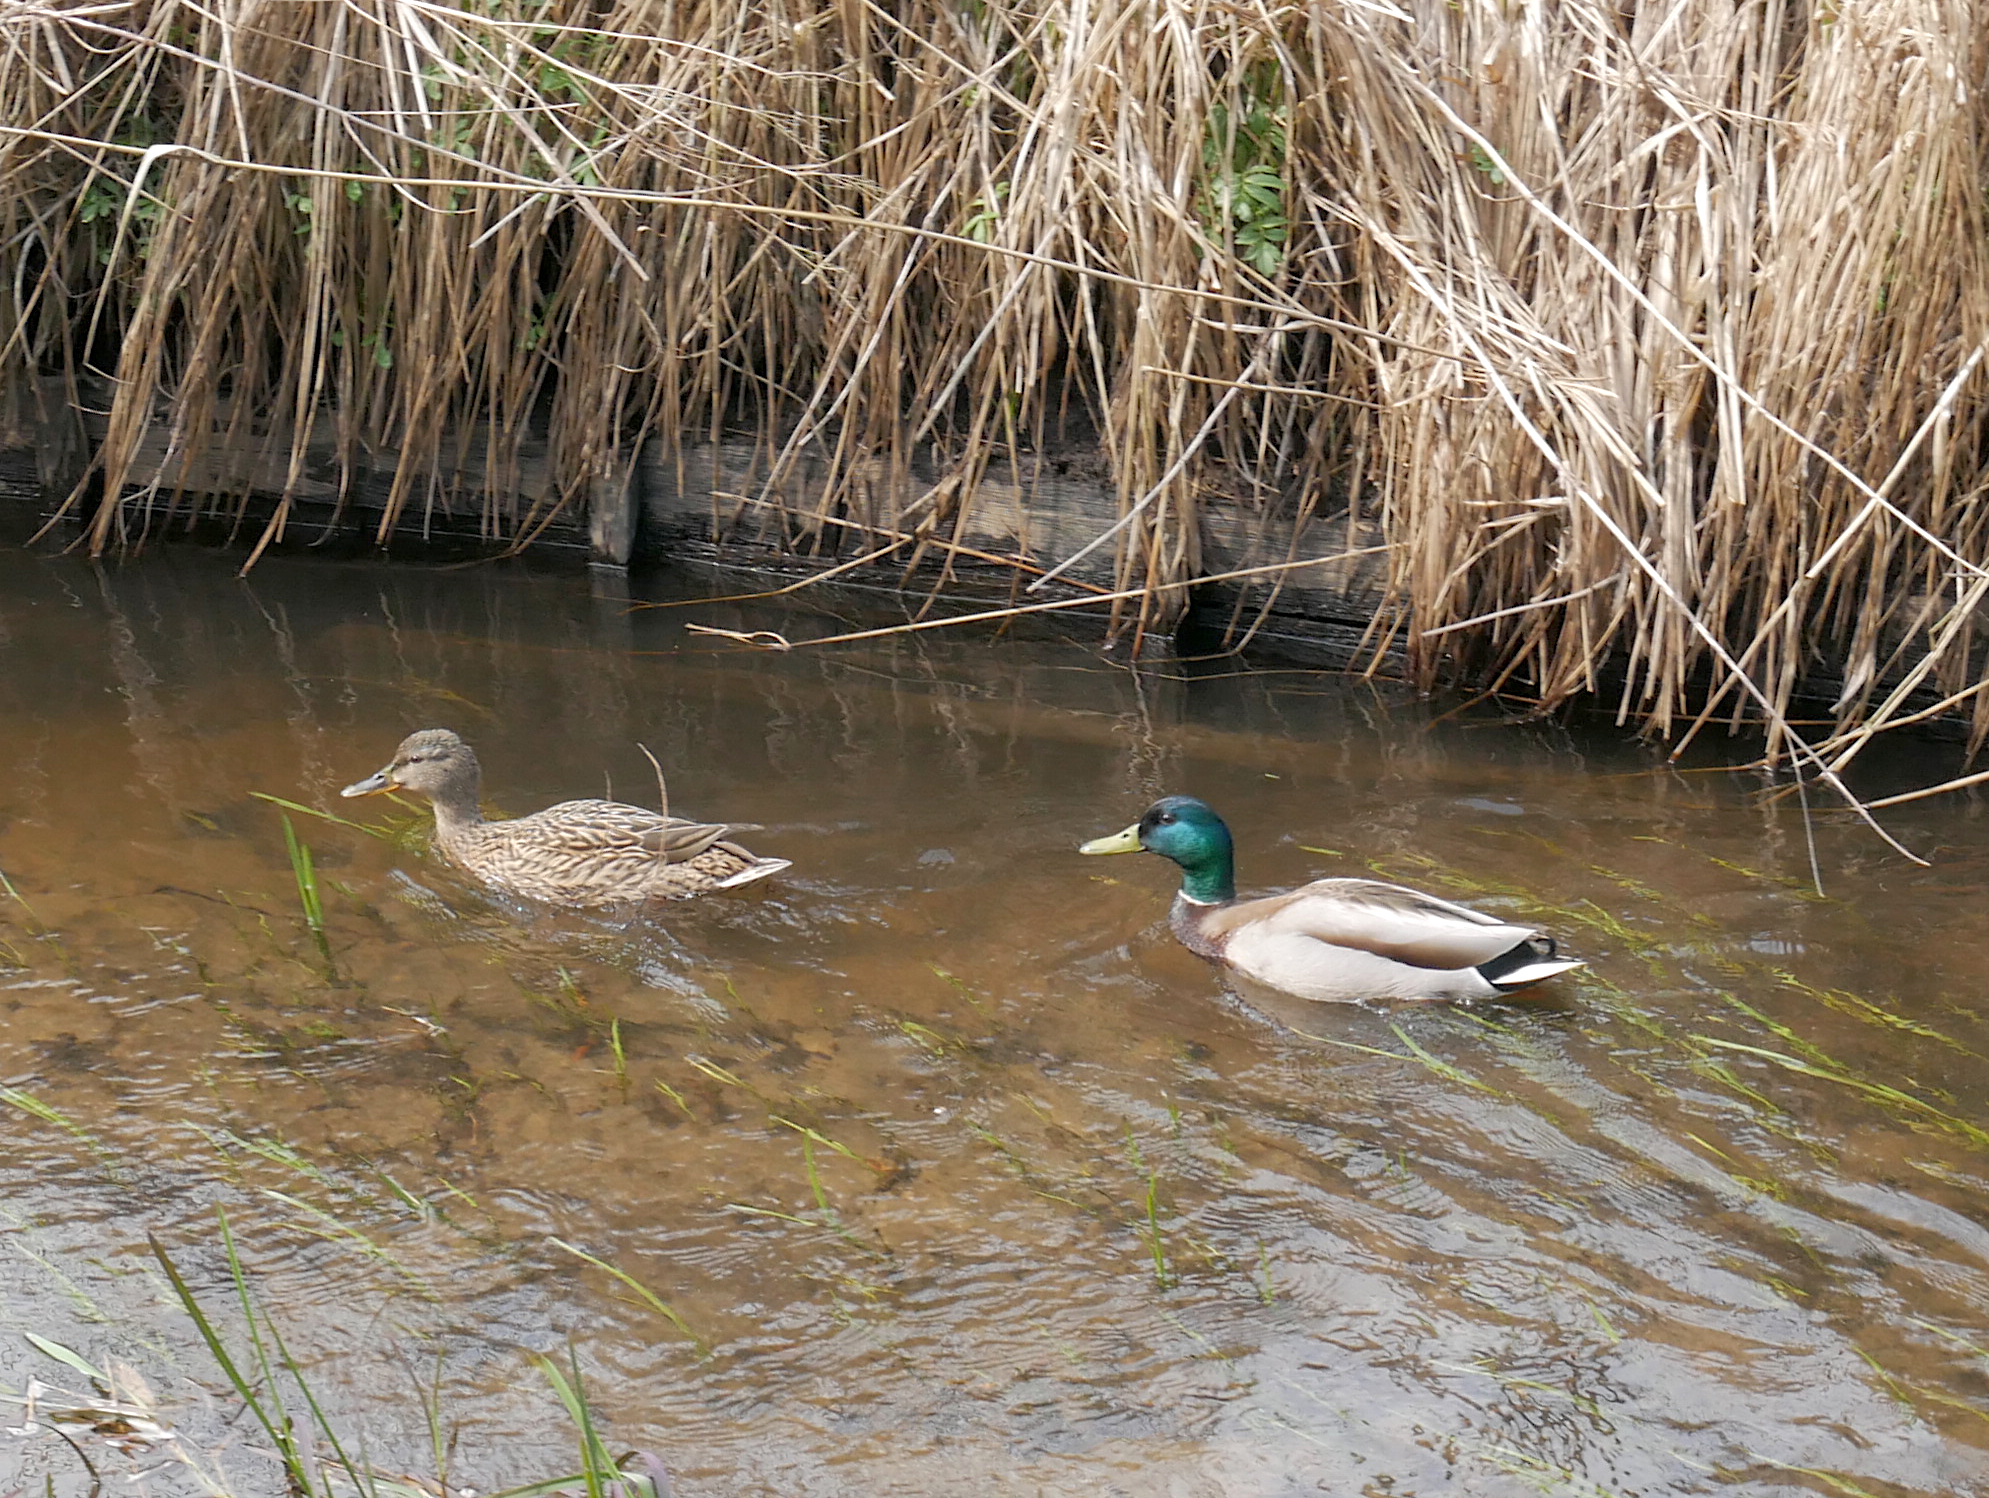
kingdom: Animalia
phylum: Chordata
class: Aves
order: Anseriformes
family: Anatidae
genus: Anas
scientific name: Anas platyrhynchos
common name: Mallard
